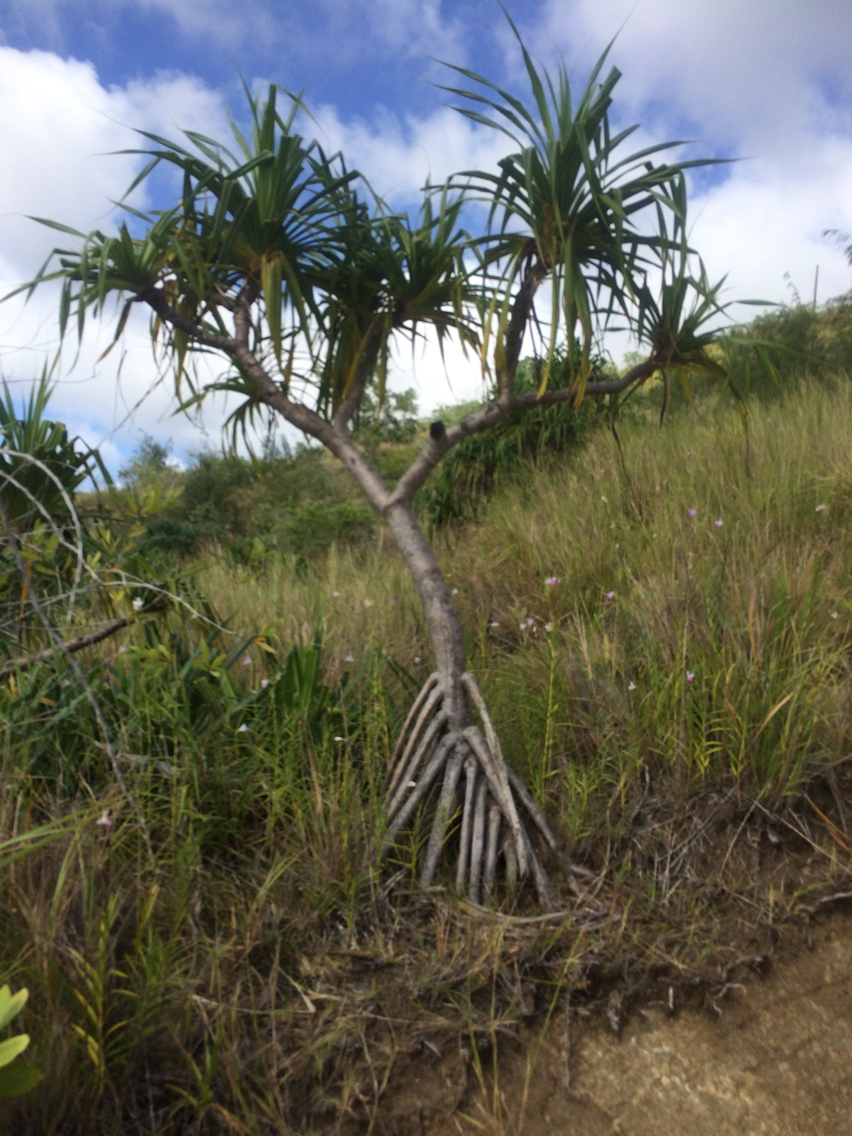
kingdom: Plantae
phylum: Tracheophyta
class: Liliopsida
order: Pandanales
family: Pandanaceae
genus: Pandanus
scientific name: Pandanus tectorius
